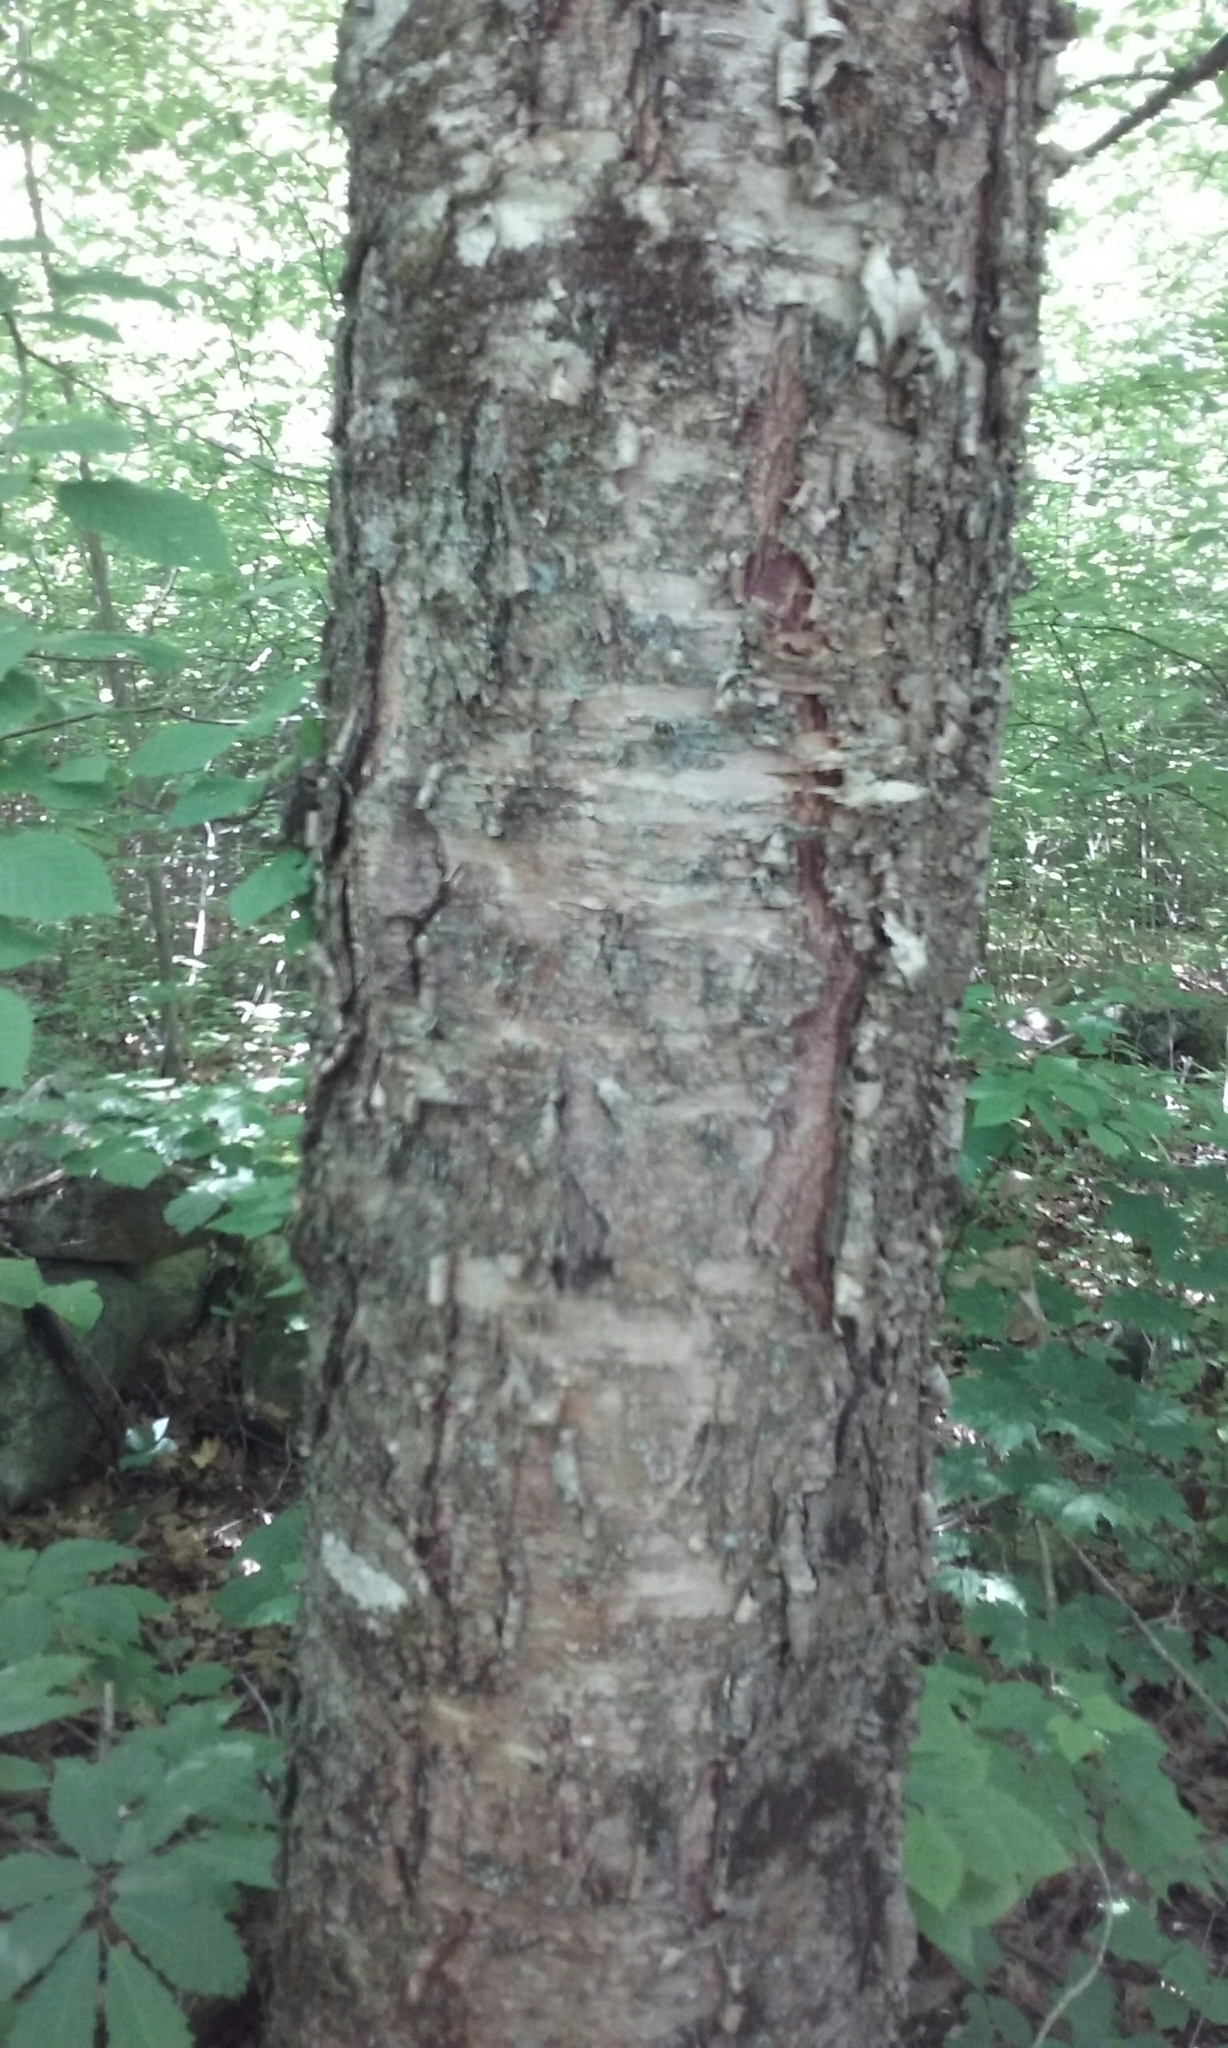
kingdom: Plantae
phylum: Tracheophyta
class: Magnoliopsida
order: Fagales
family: Betulaceae
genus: Betula
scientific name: Betula alleghaniensis
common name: Yellow birch
